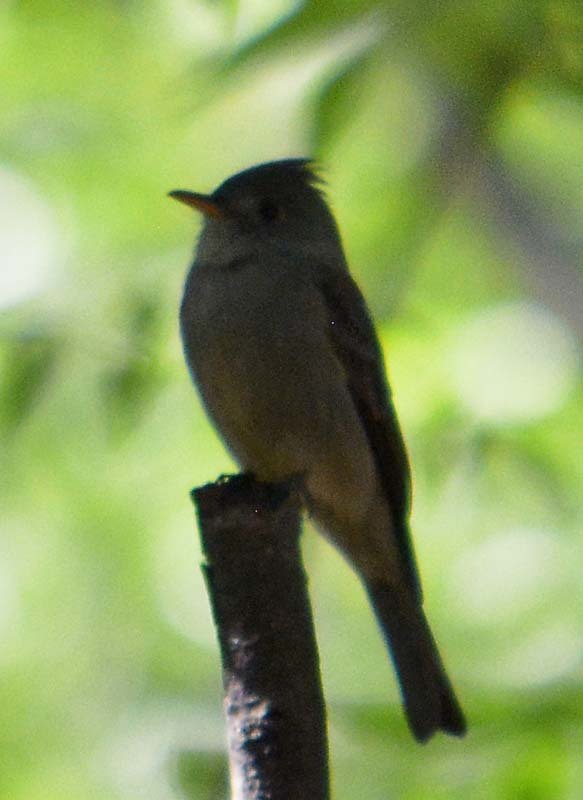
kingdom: Animalia
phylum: Chordata
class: Aves
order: Passeriformes
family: Tyrannidae
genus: Contopus
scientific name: Contopus pertinax
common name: Greater pewee
